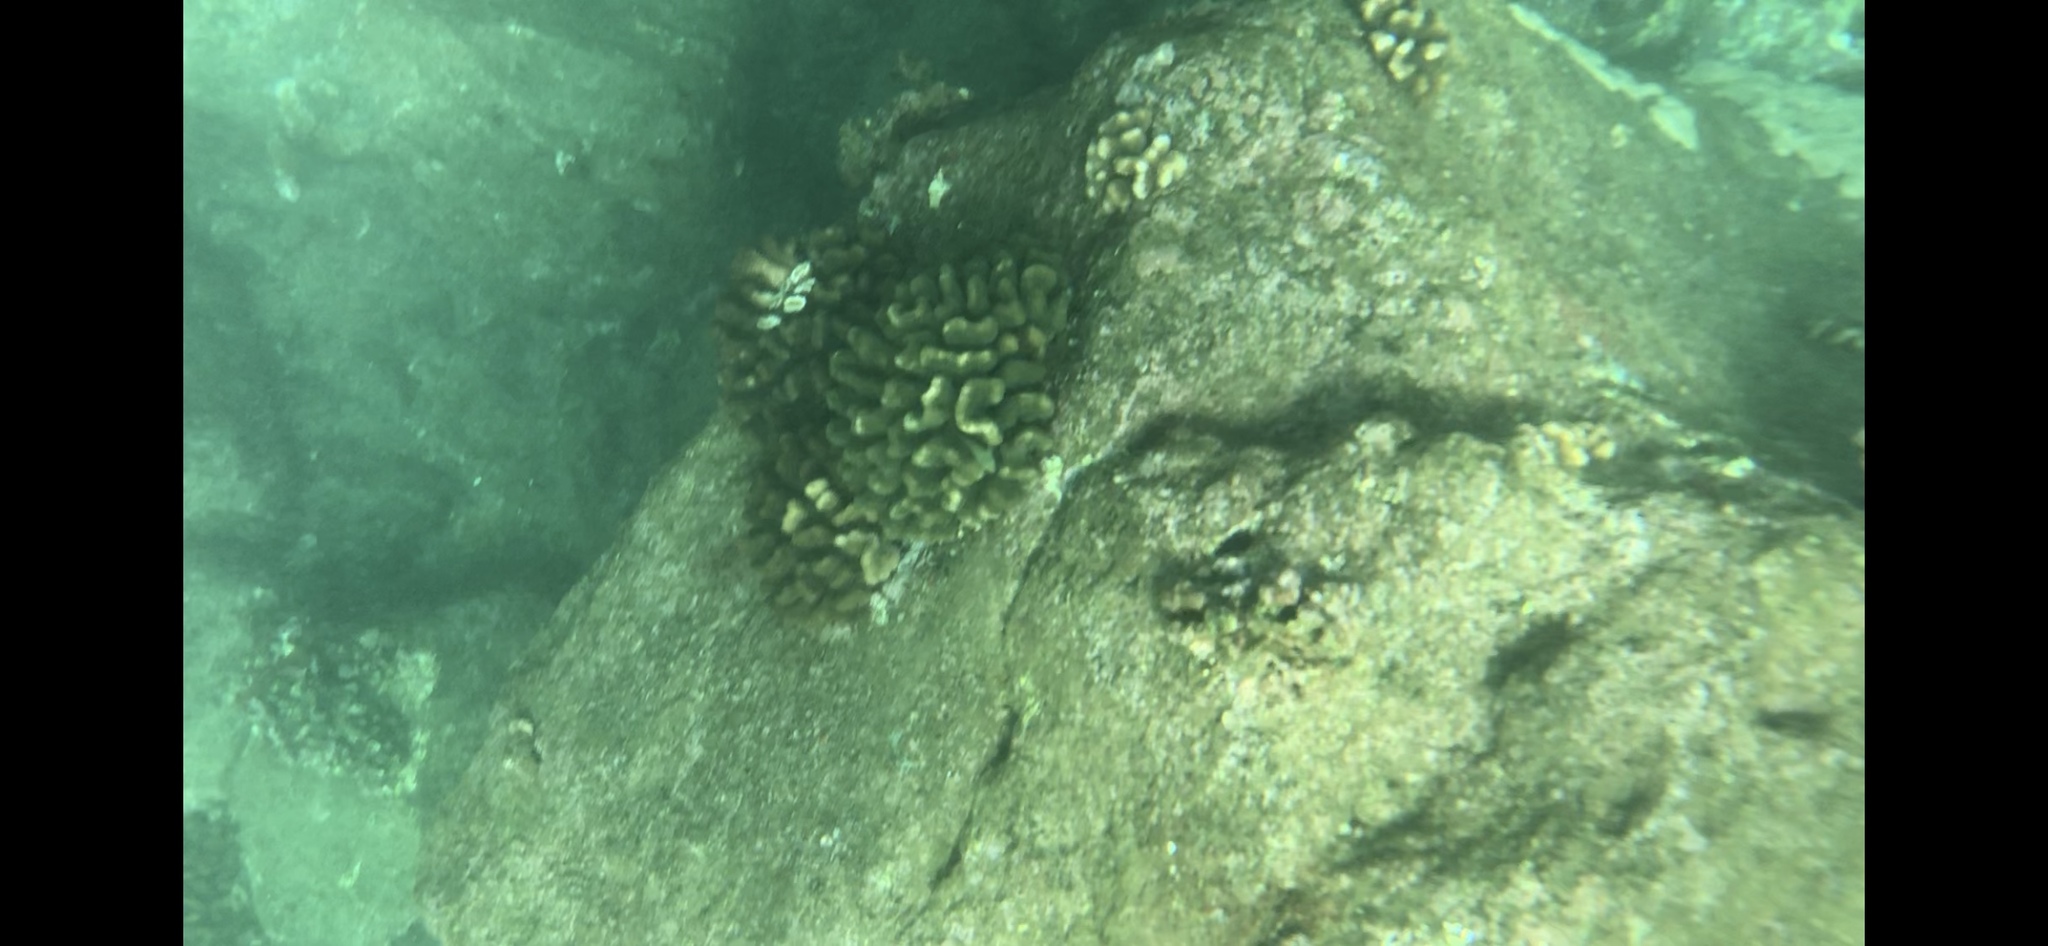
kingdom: Animalia
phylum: Cnidaria
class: Anthozoa
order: Scleractinia
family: Pocilloporidae
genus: Pocillopora
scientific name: Pocillopora meandrina
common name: Cauliflower coral
